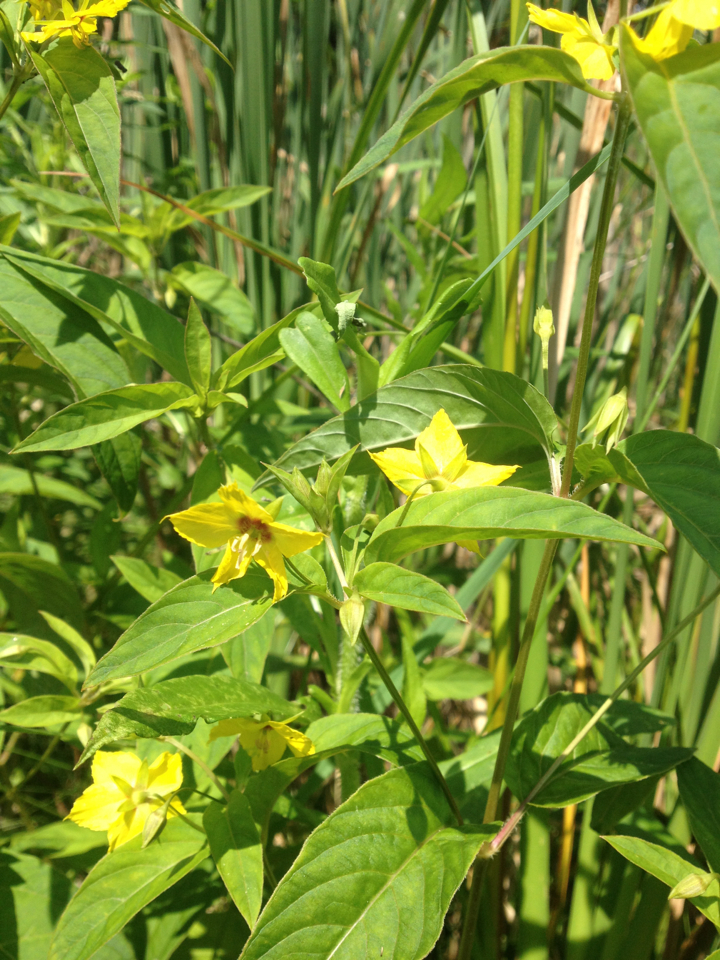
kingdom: Plantae
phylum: Tracheophyta
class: Magnoliopsida
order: Ericales
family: Primulaceae
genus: Lysimachia
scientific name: Lysimachia ciliata
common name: Fringed loosestrife
